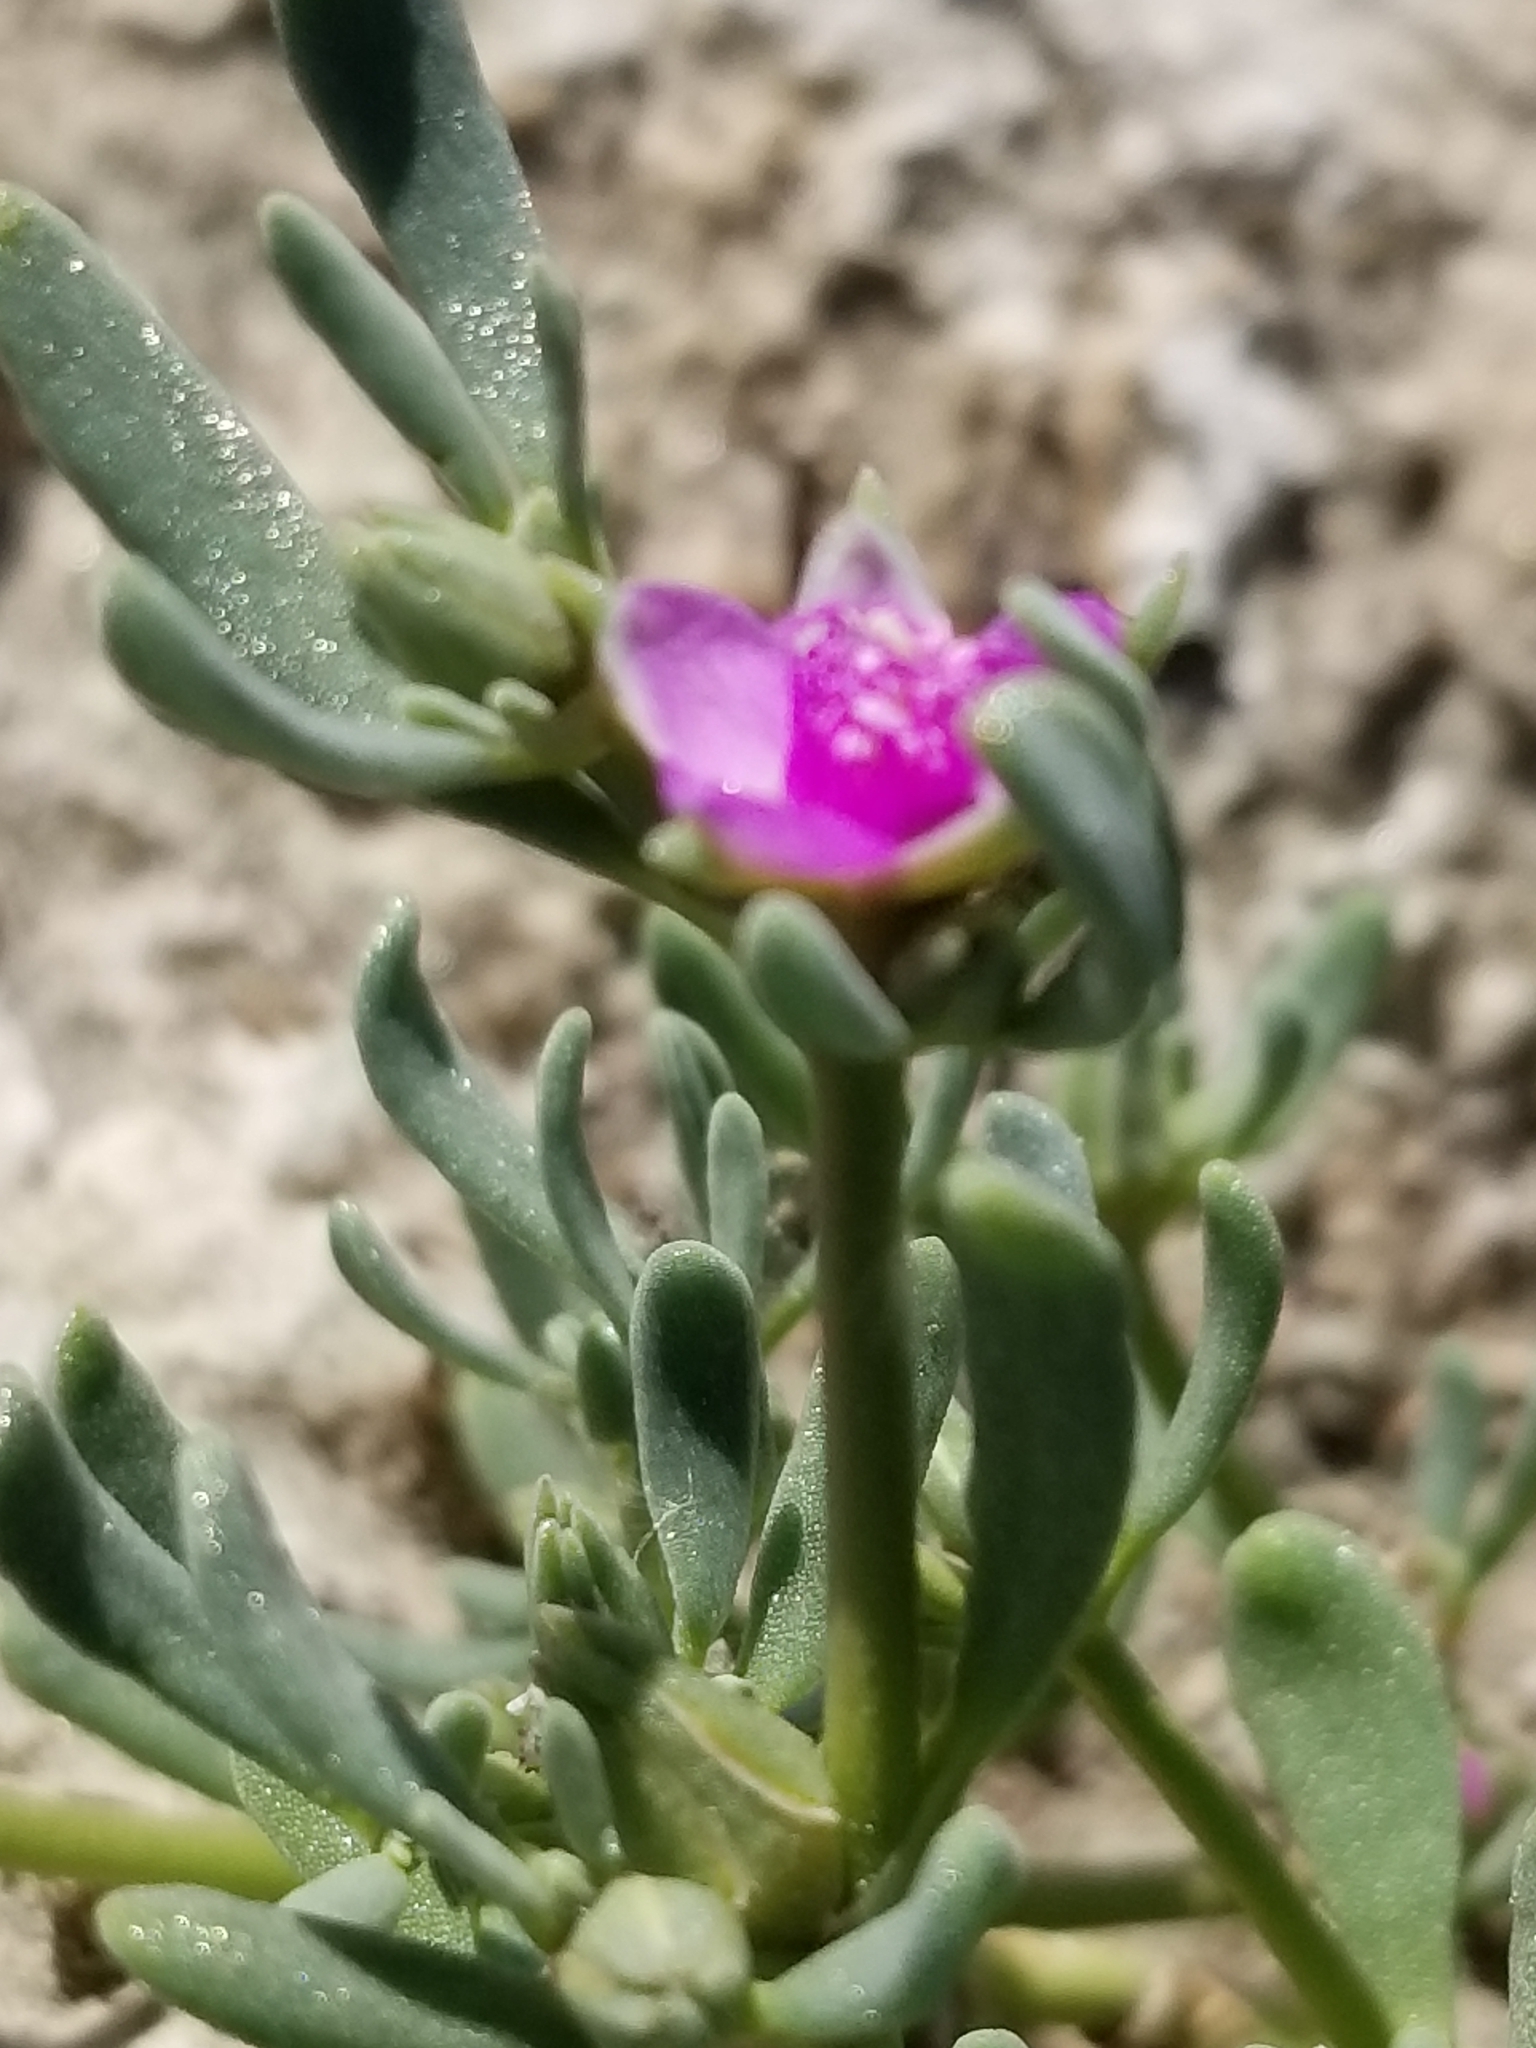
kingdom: Plantae
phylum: Tracheophyta
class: Magnoliopsida
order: Caryophyllales
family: Aizoaceae
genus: Sesuvium
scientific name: Sesuvium revolutifolium
